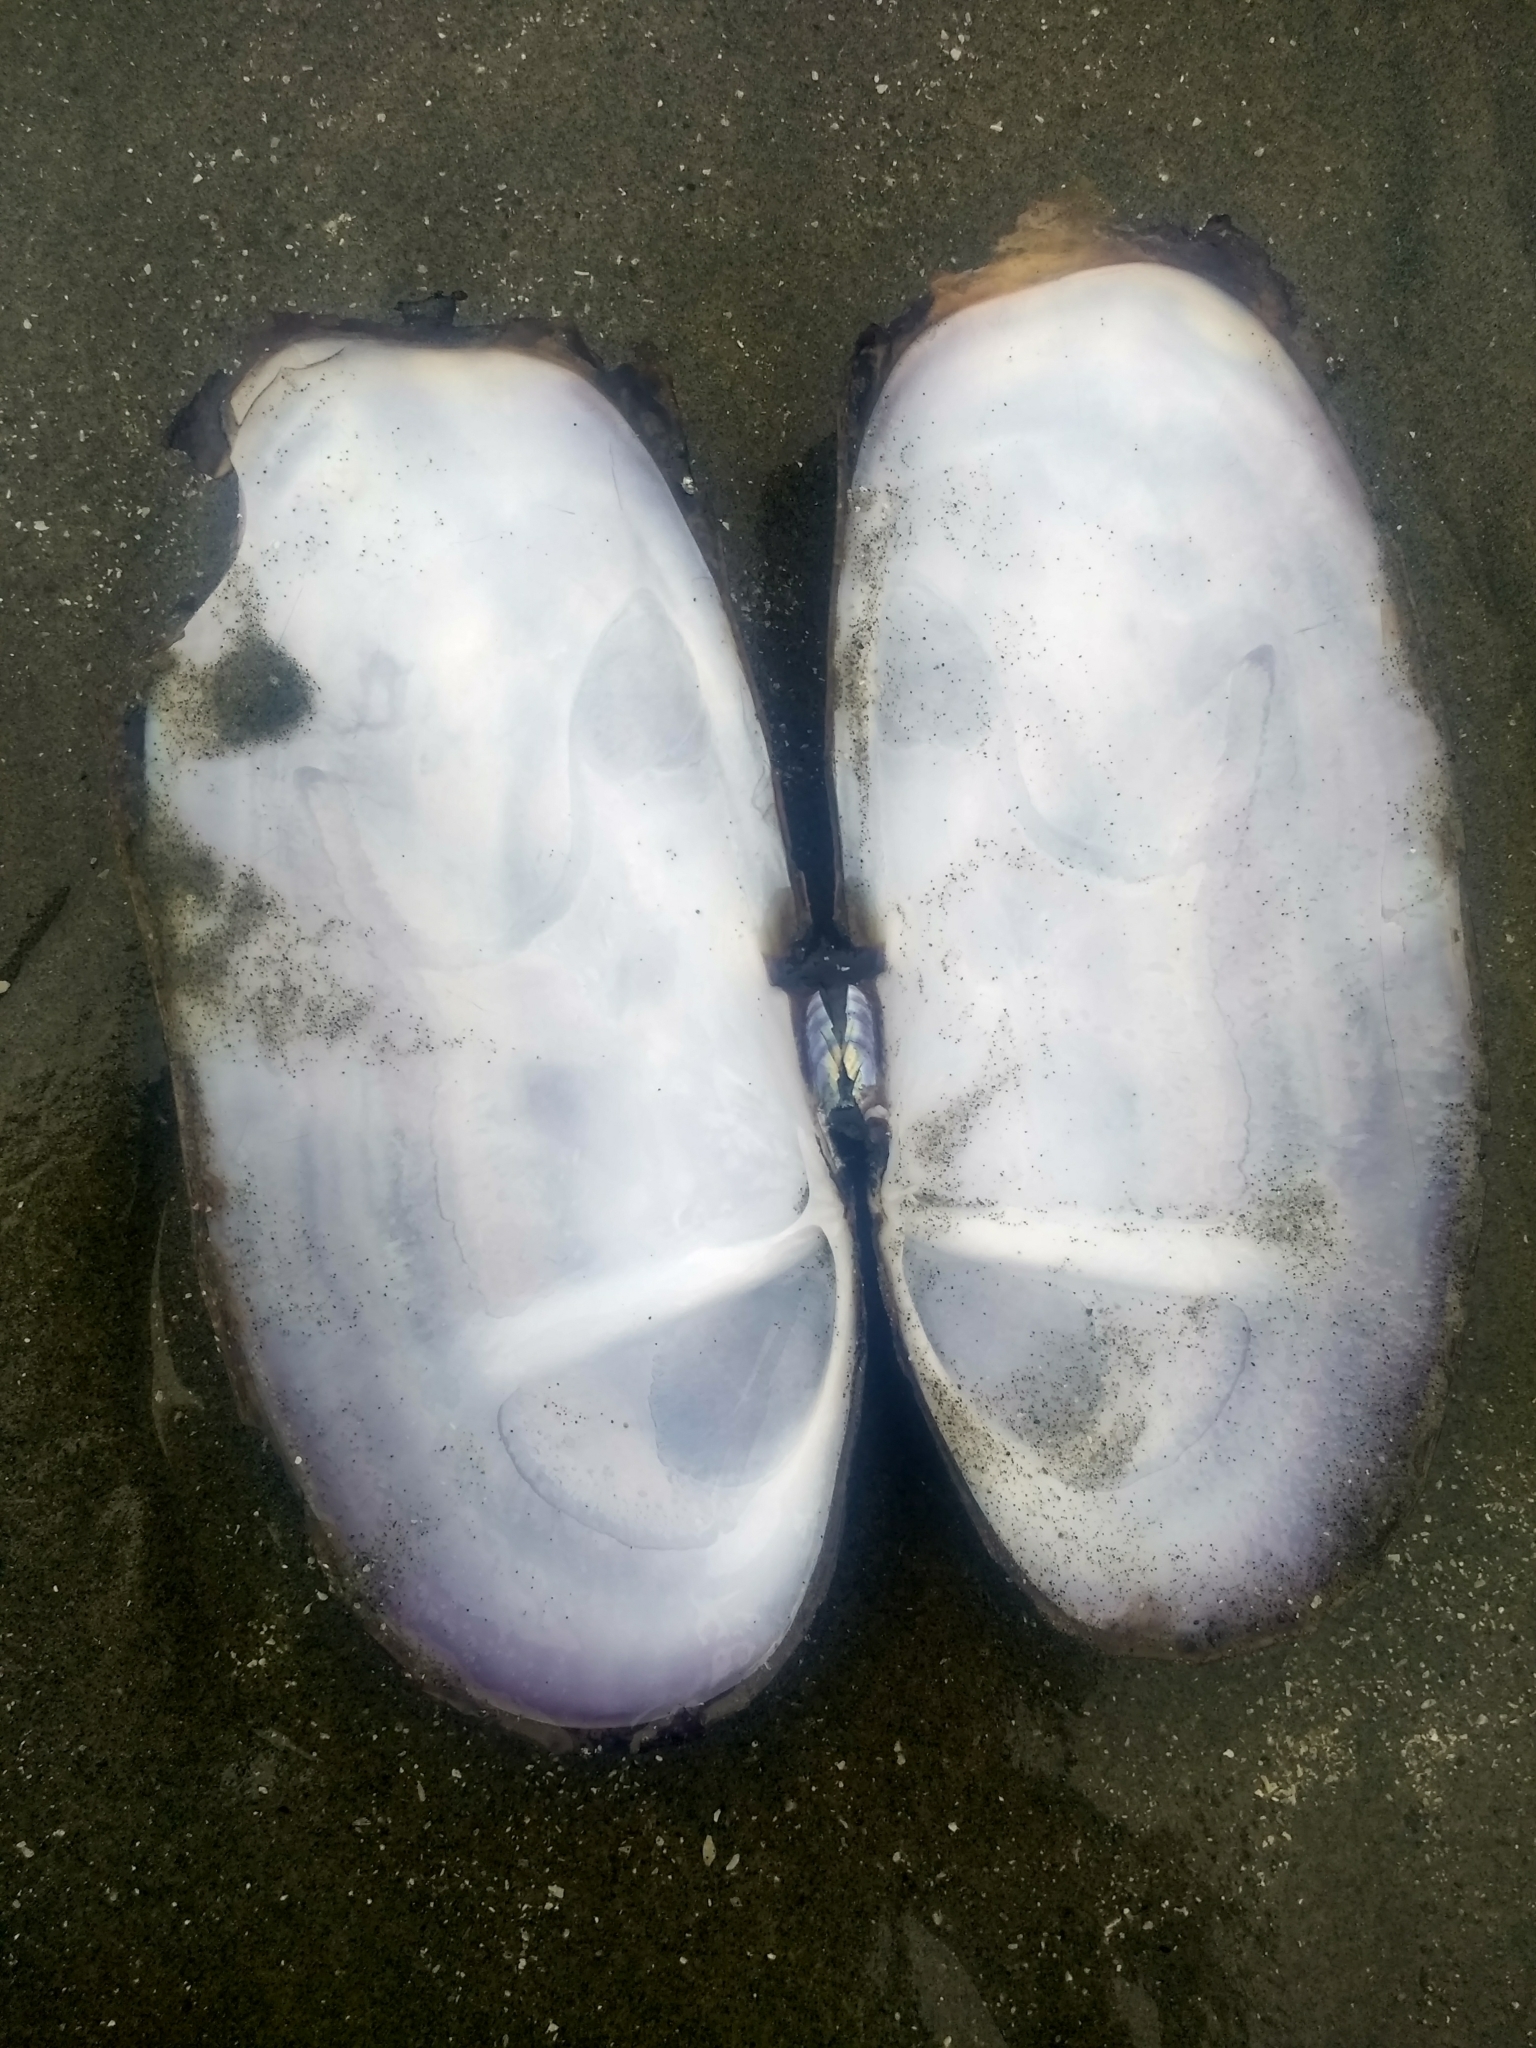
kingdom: Animalia
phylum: Mollusca
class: Bivalvia
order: Adapedonta
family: Pharidae
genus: Siliqua
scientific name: Siliqua patula
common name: Pacific razor clam
